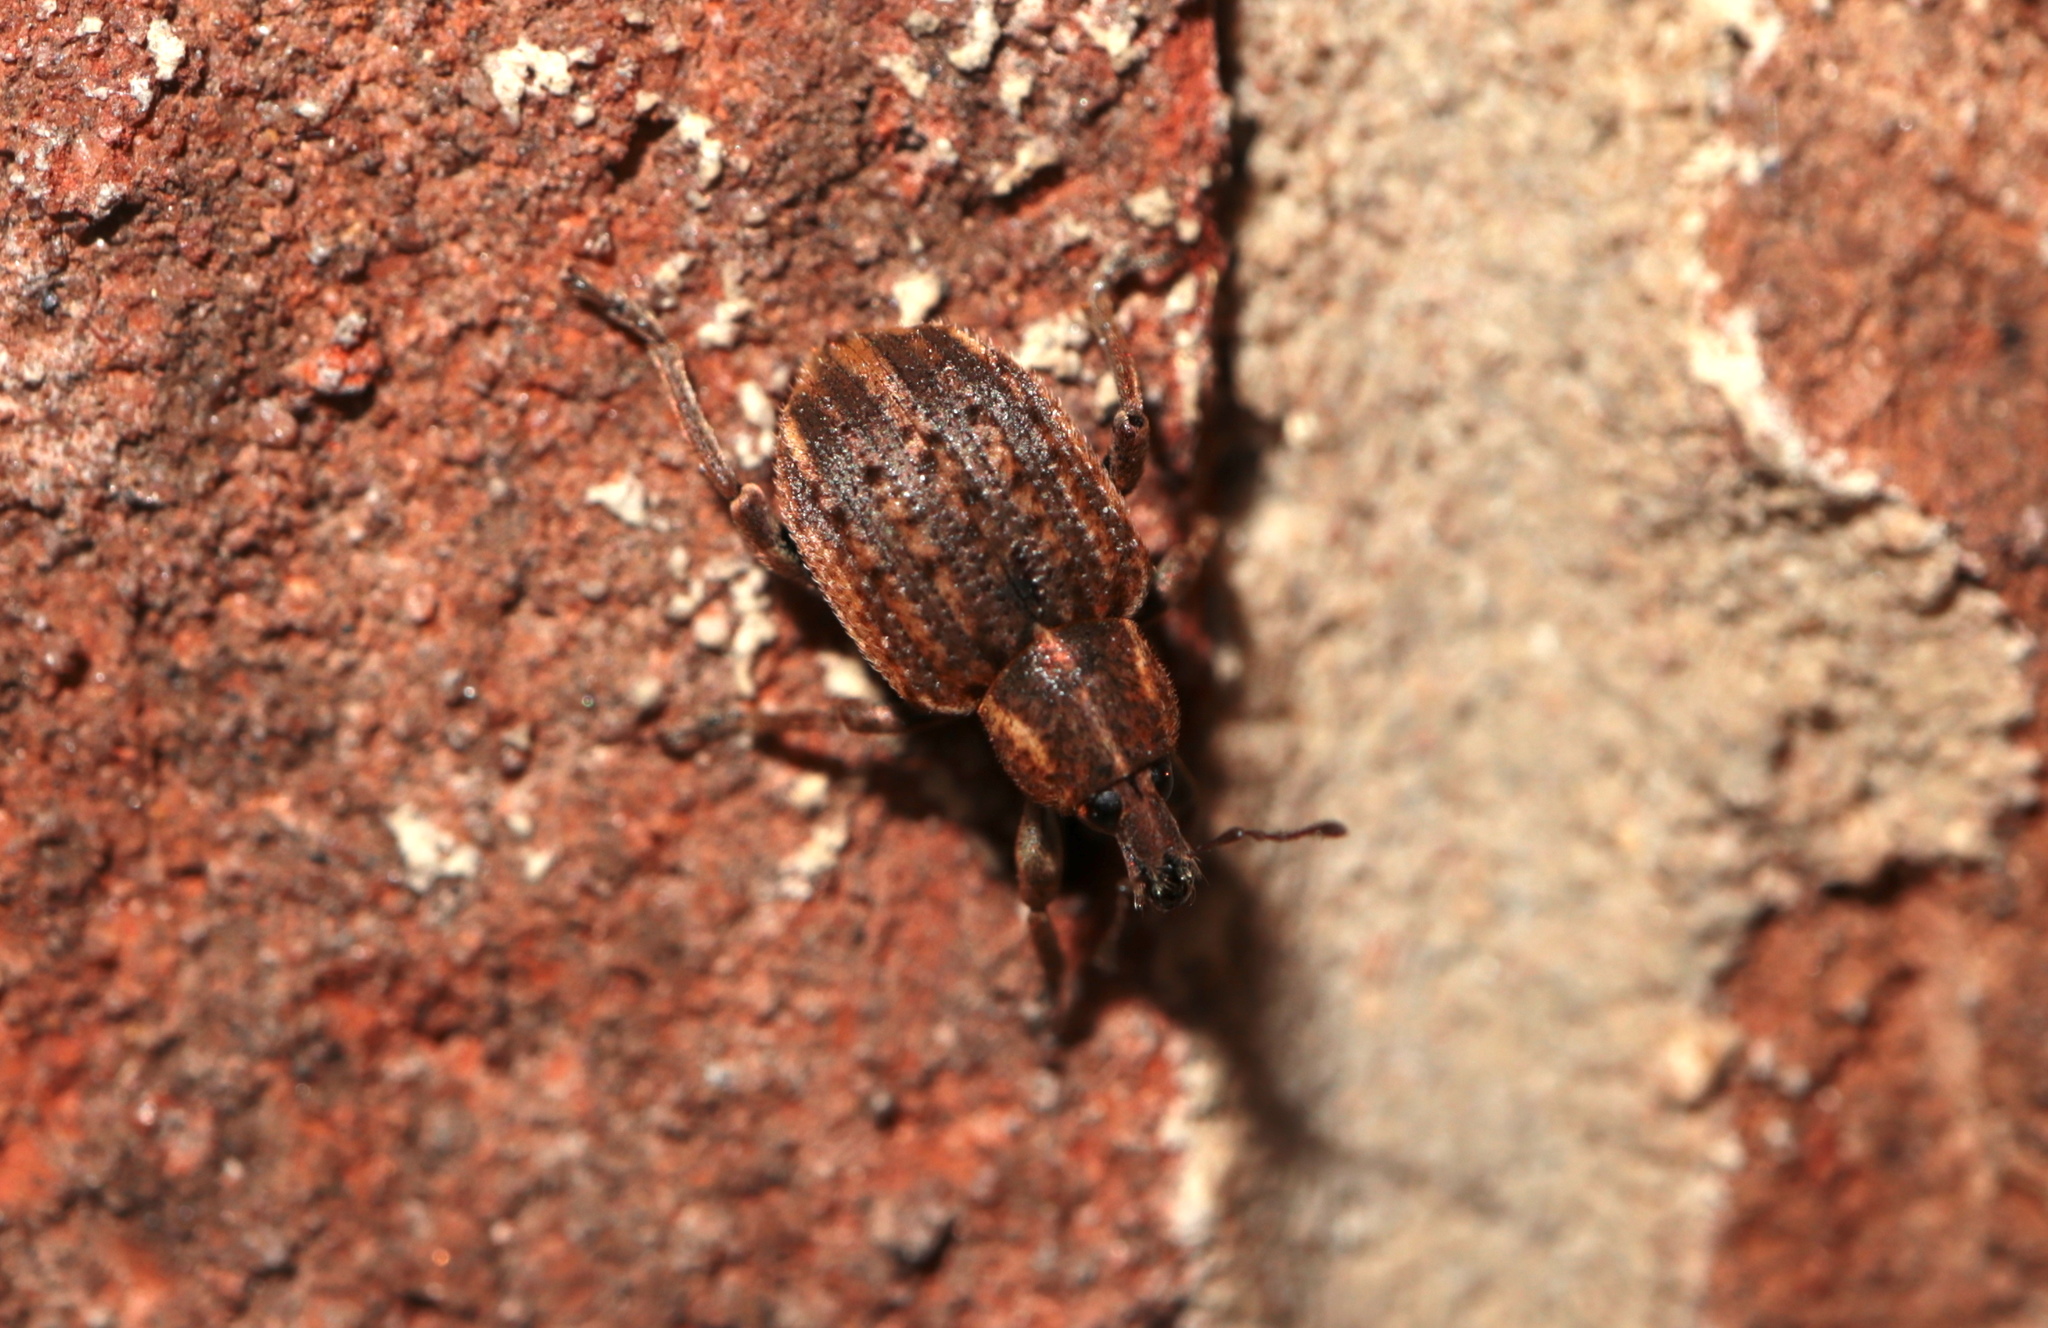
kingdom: Animalia
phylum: Arthropoda
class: Insecta
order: Coleoptera
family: Curculionidae
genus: Brachypera
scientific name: Brachypera zoilus
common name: Clover leaf weevil
